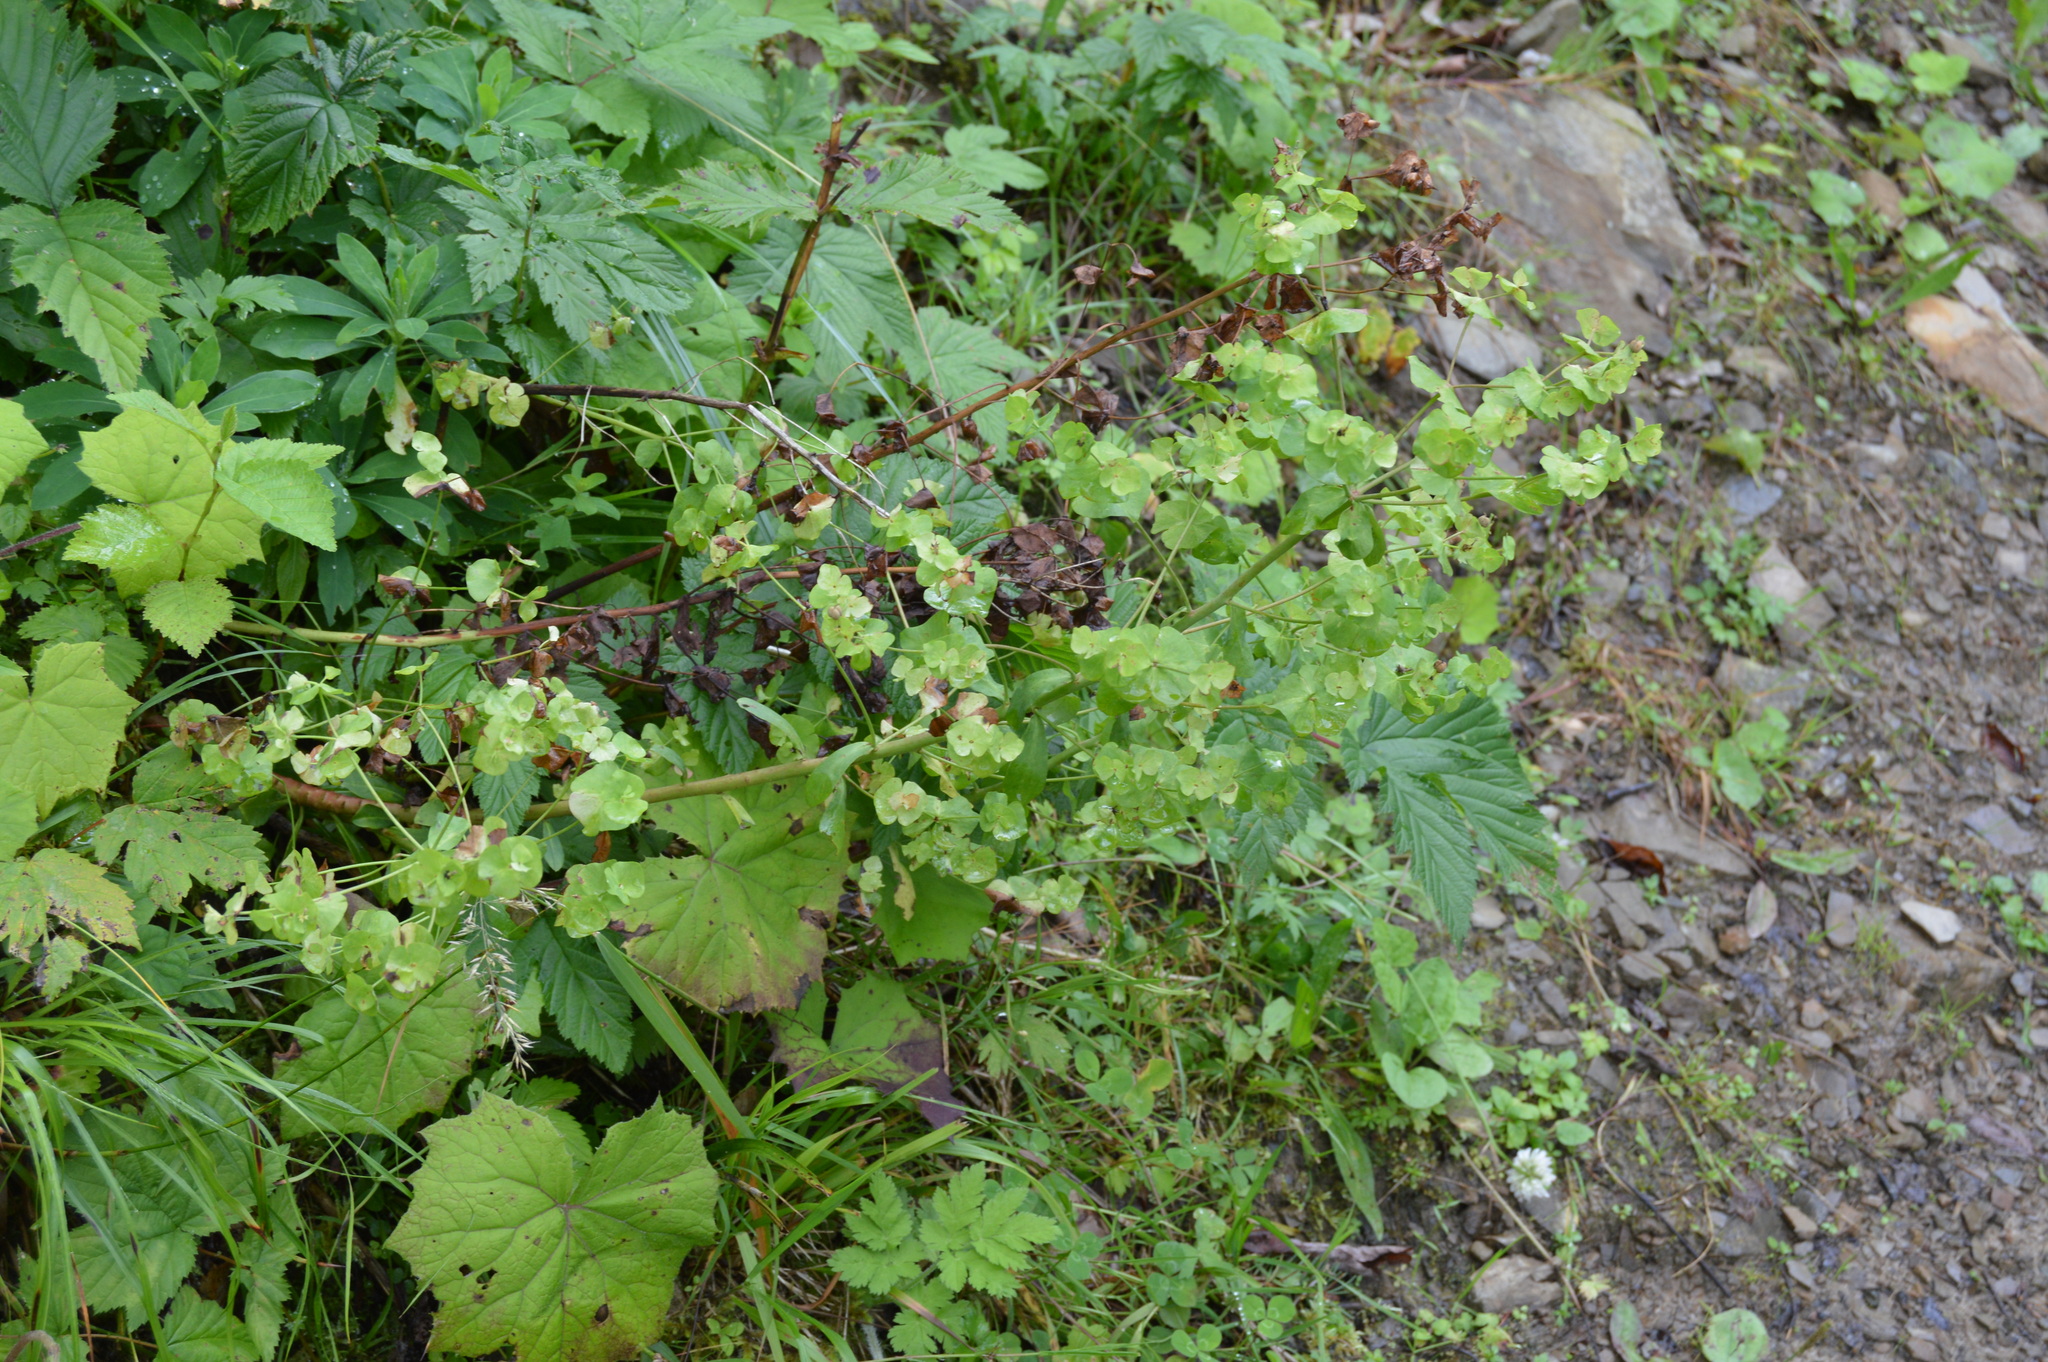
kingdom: Plantae
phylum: Tracheophyta
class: Magnoliopsida
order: Malpighiales
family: Euphorbiaceae
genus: Euphorbia
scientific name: Euphorbia amygdaloides
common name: Wood spurge
